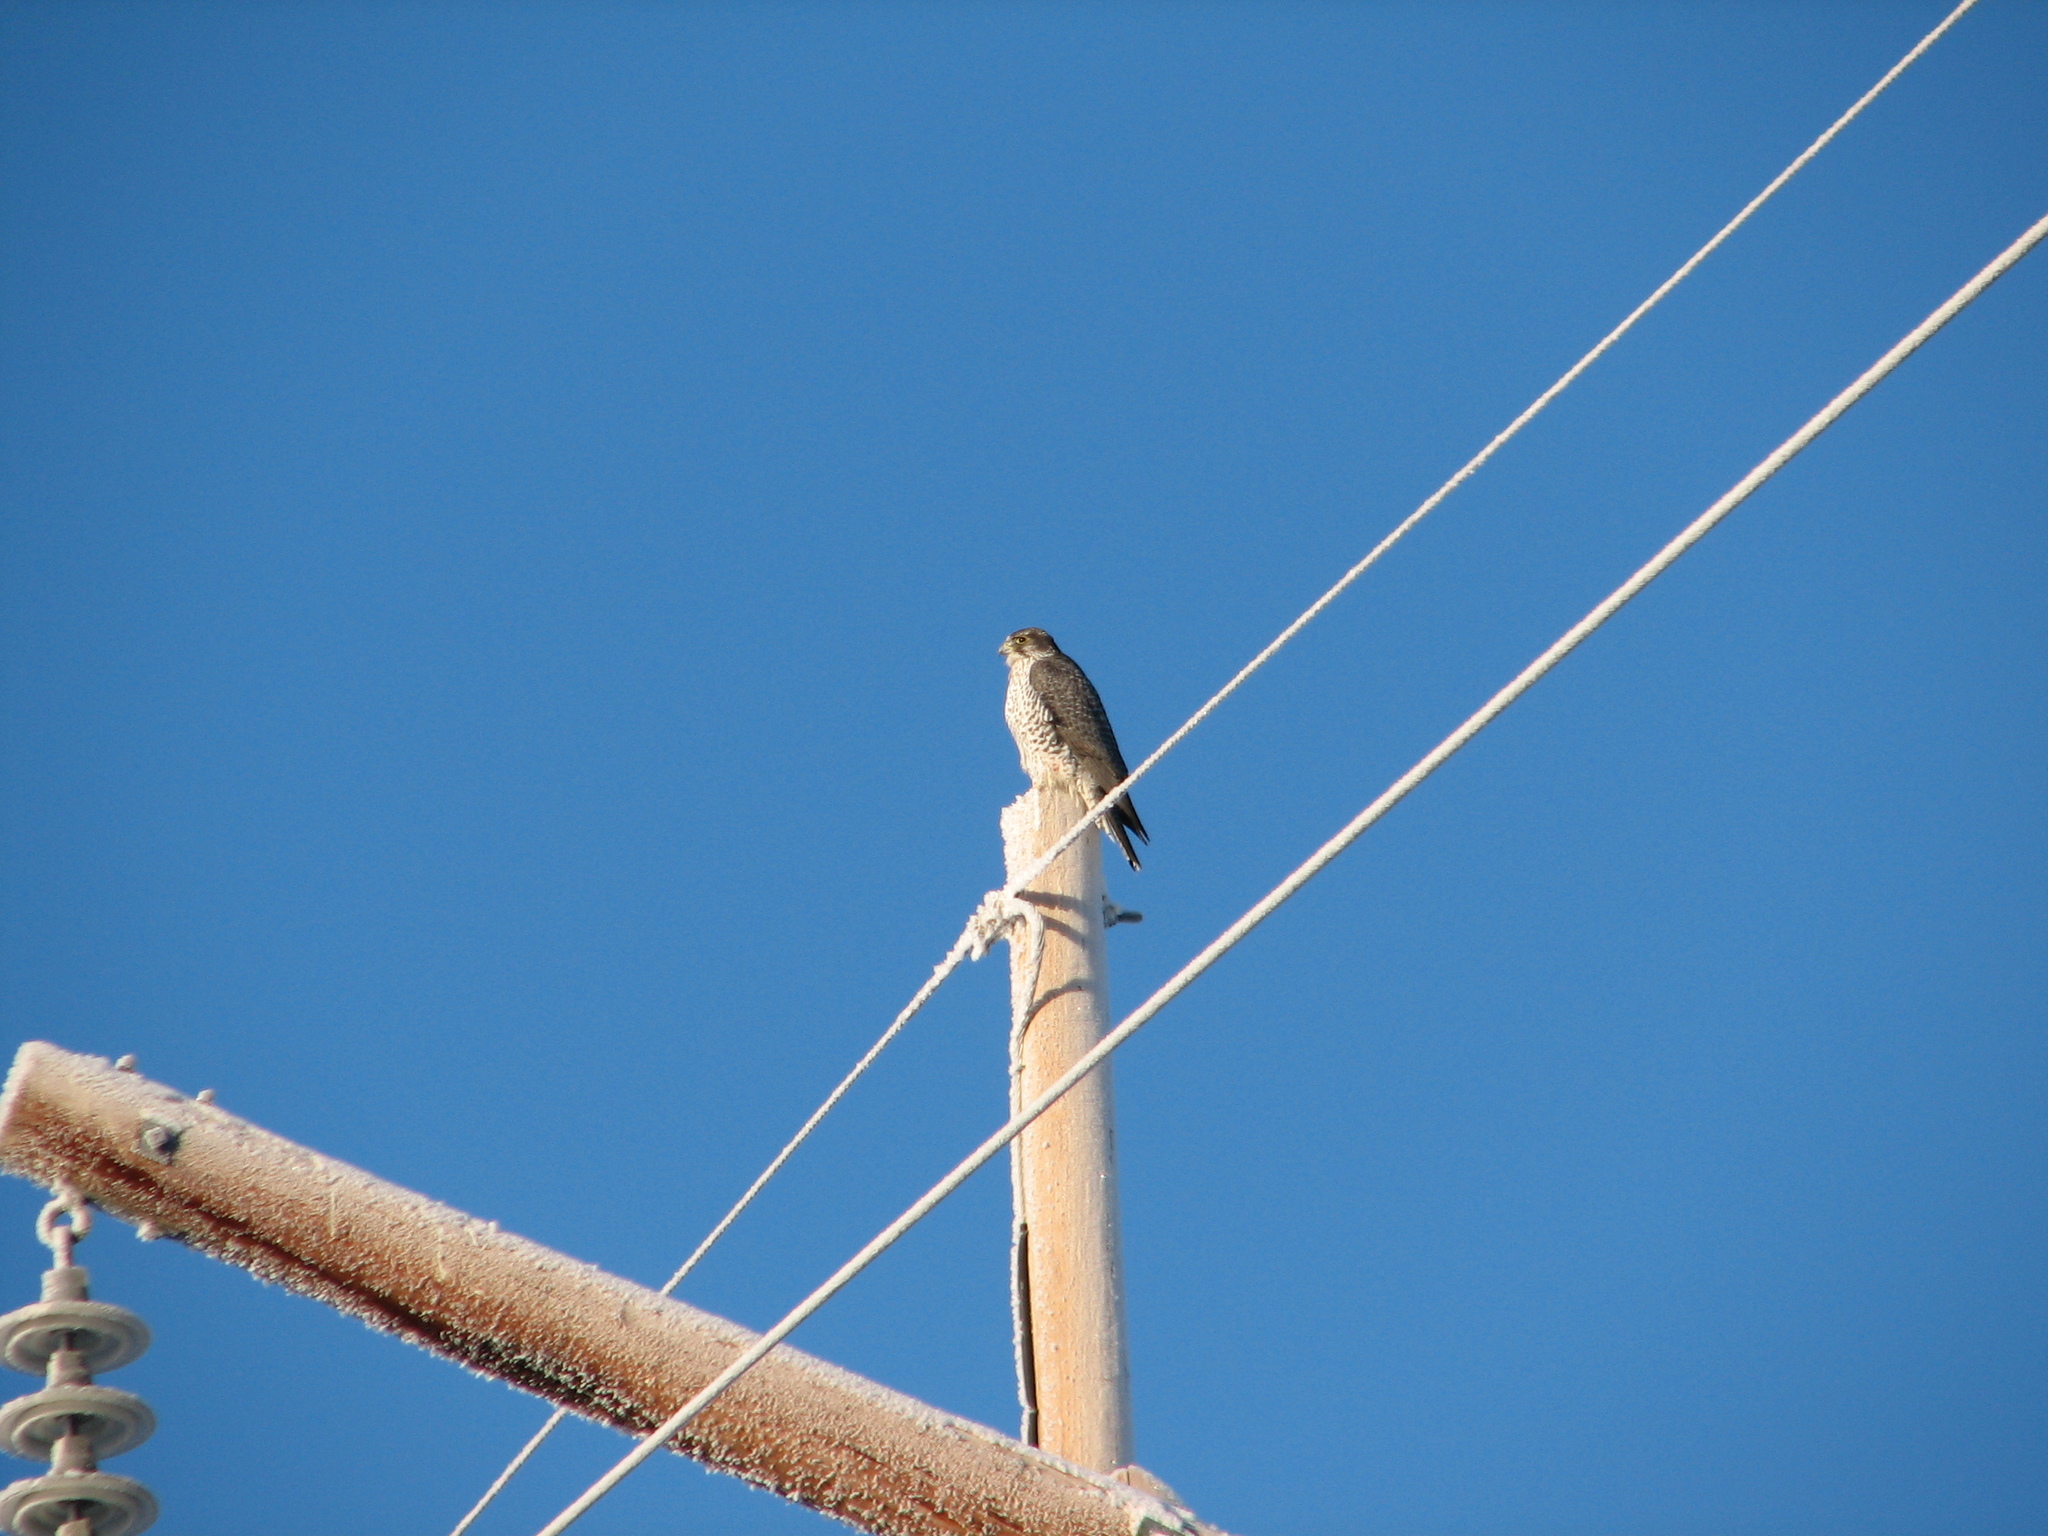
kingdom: Animalia
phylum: Chordata
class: Aves
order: Falconiformes
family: Falconidae
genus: Falco
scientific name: Falco peregrinus
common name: Peregrine falcon
